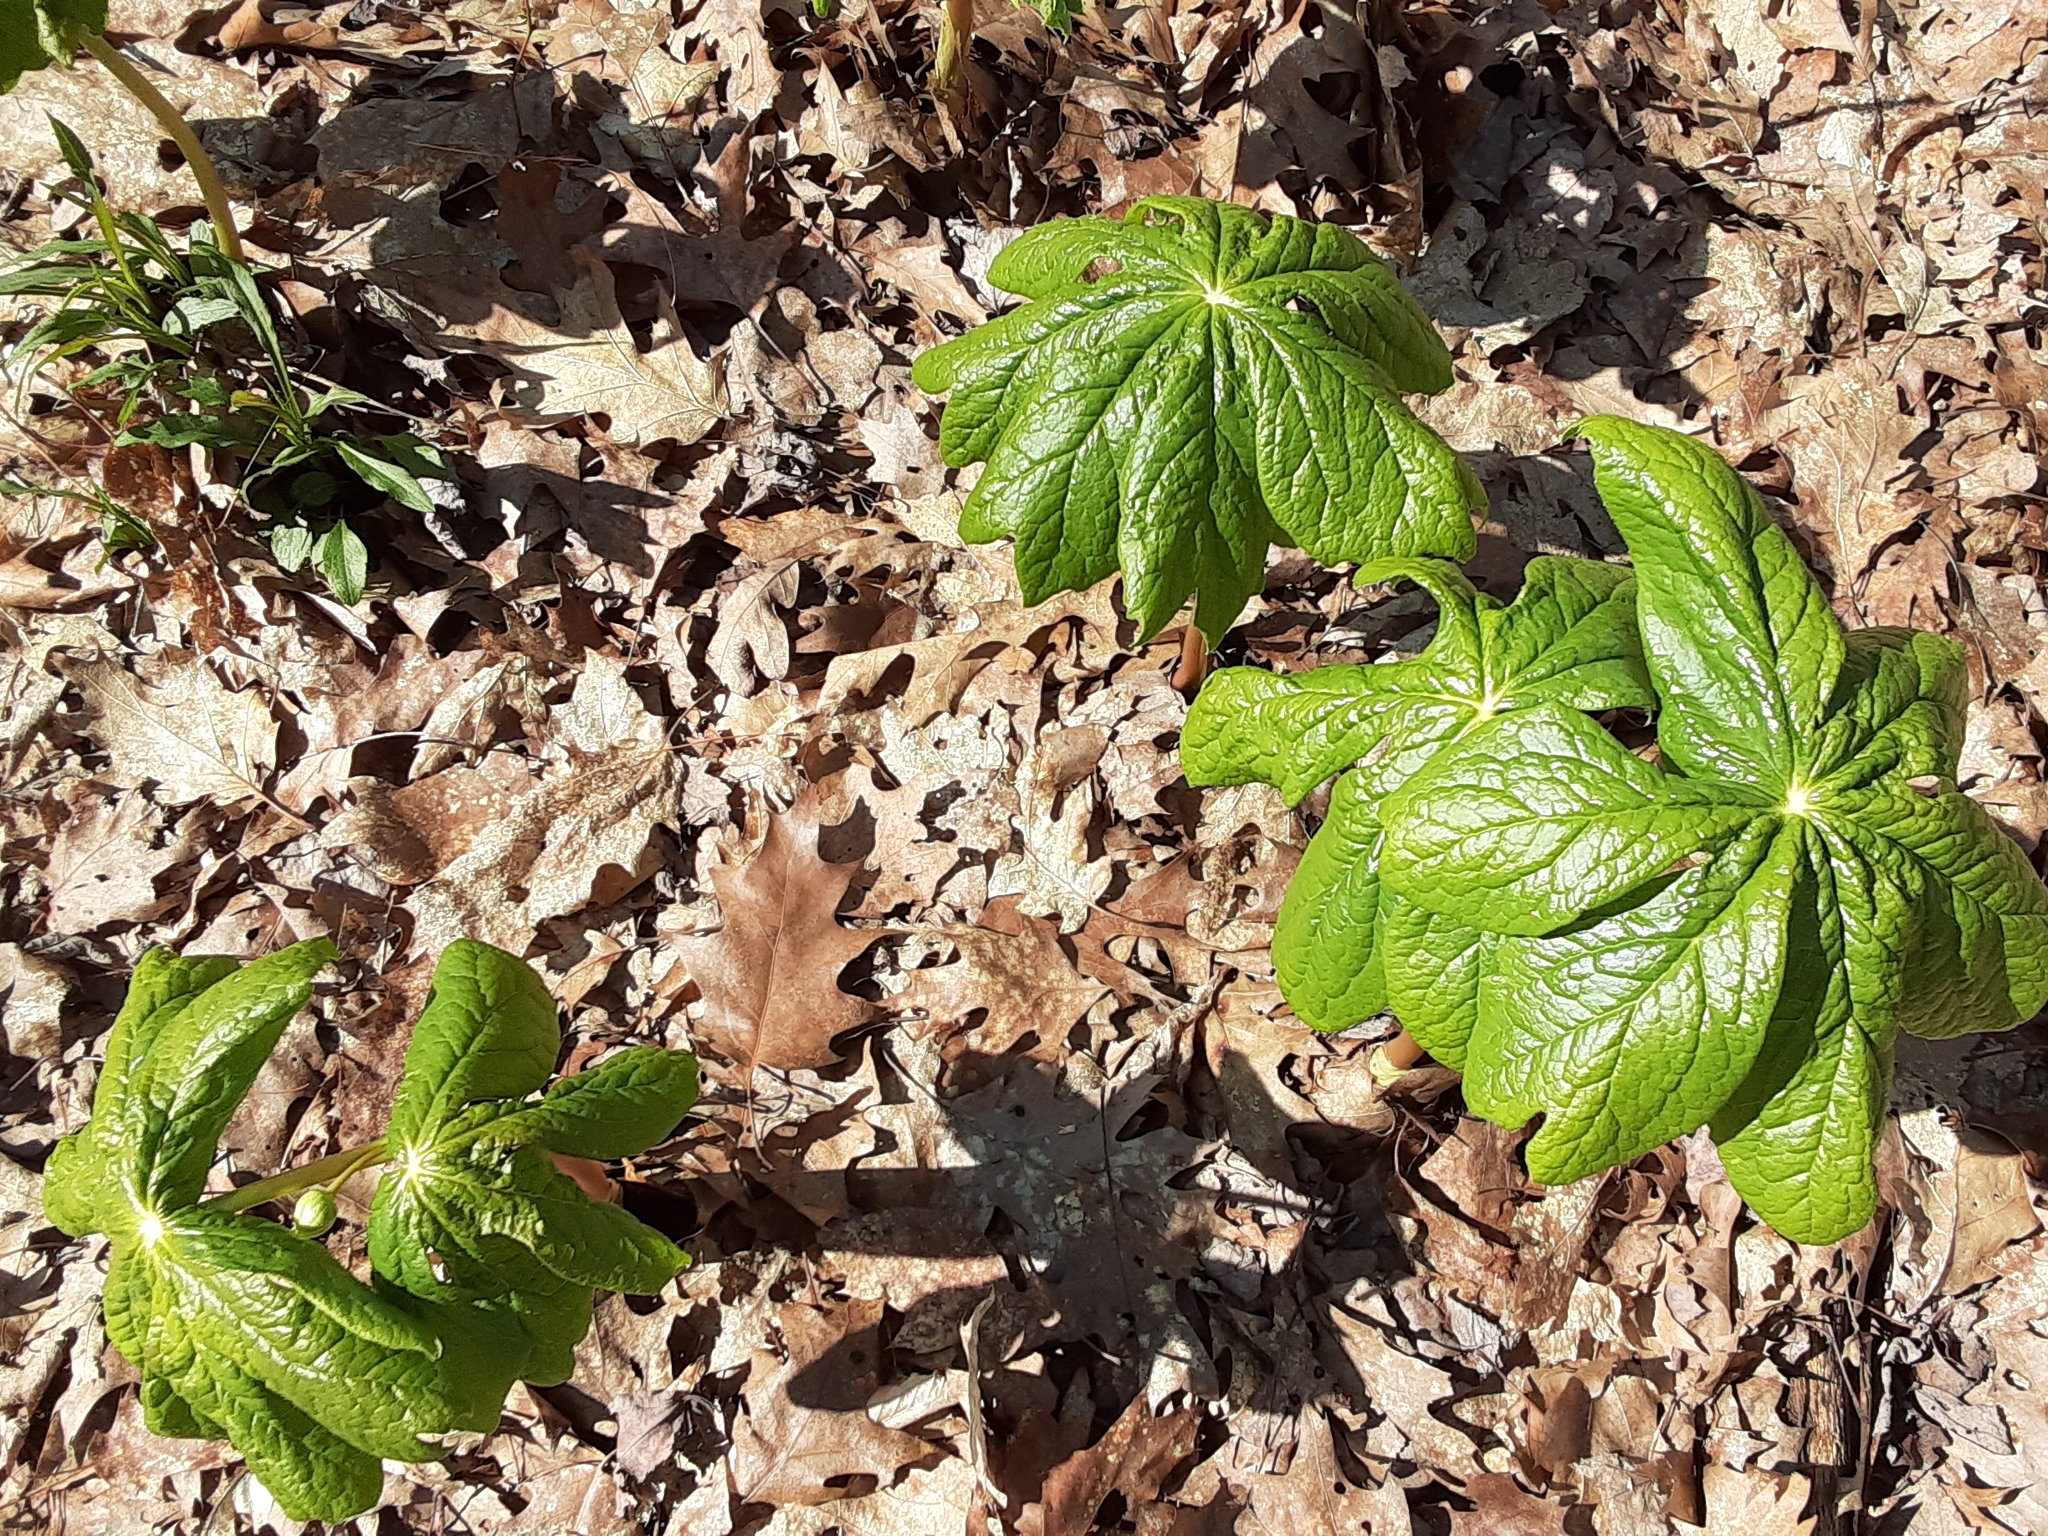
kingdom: Plantae
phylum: Tracheophyta
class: Magnoliopsida
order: Ranunculales
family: Berberidaceae
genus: Podophyllum
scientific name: Podophyllum peltatum
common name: Wild mandrake
